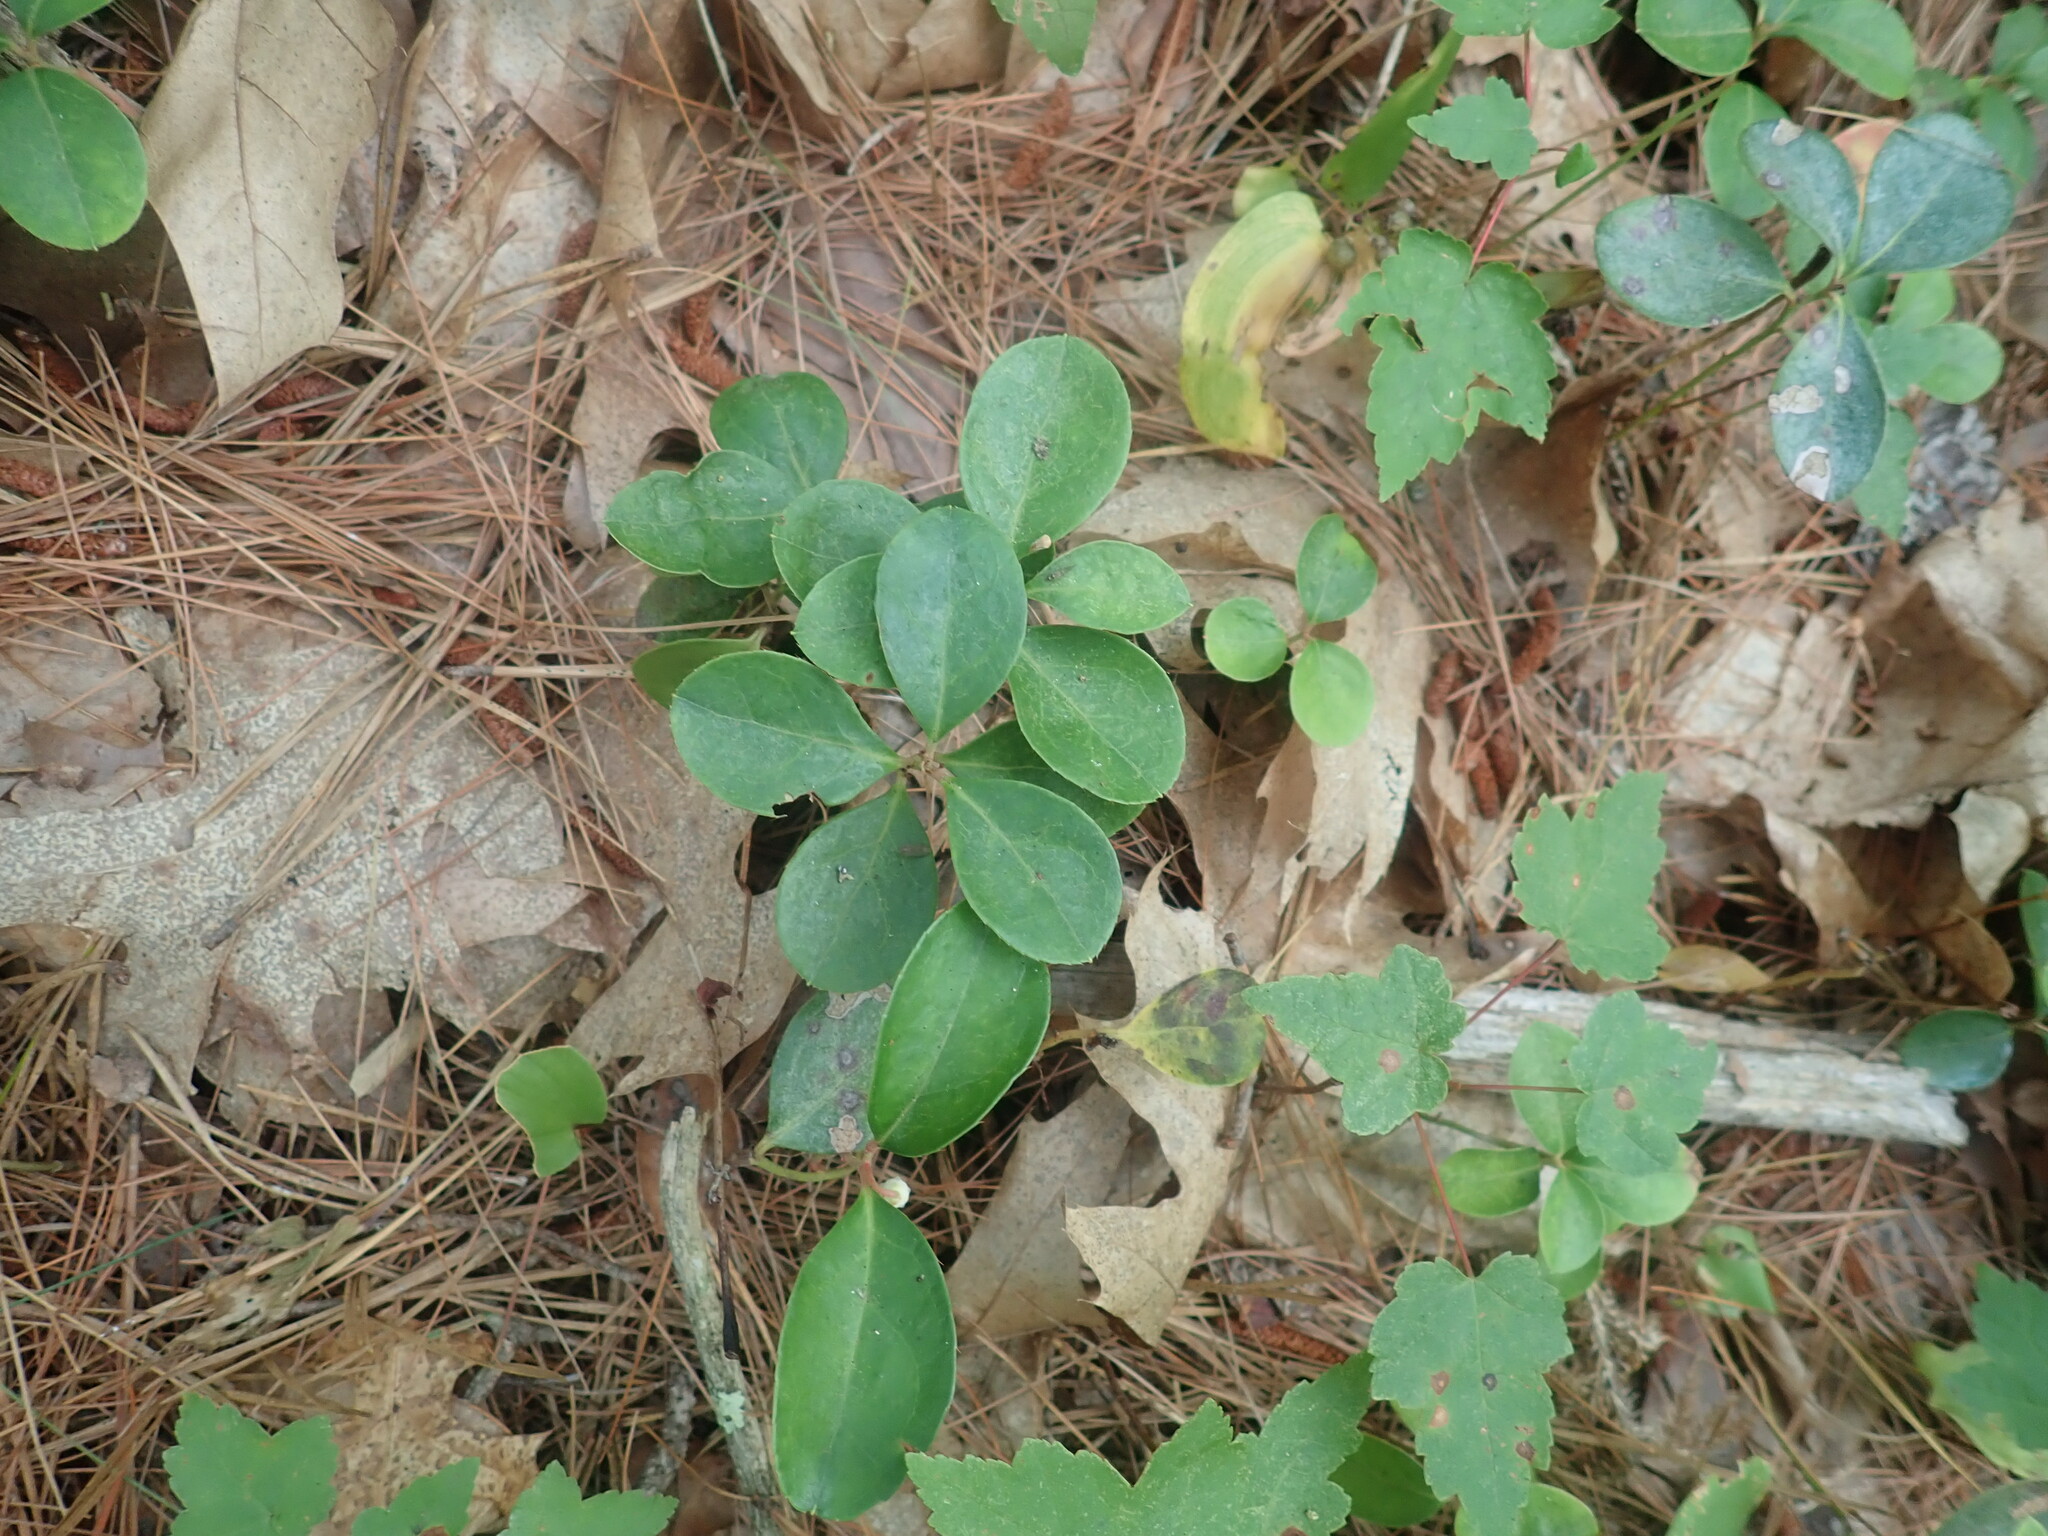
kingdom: Plantae
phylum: Tracheophyta
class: Magnoliopsida
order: Ericales
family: Ericaceae
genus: Gaultheria
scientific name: Gaultheria procumbens
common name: Checkerberry
